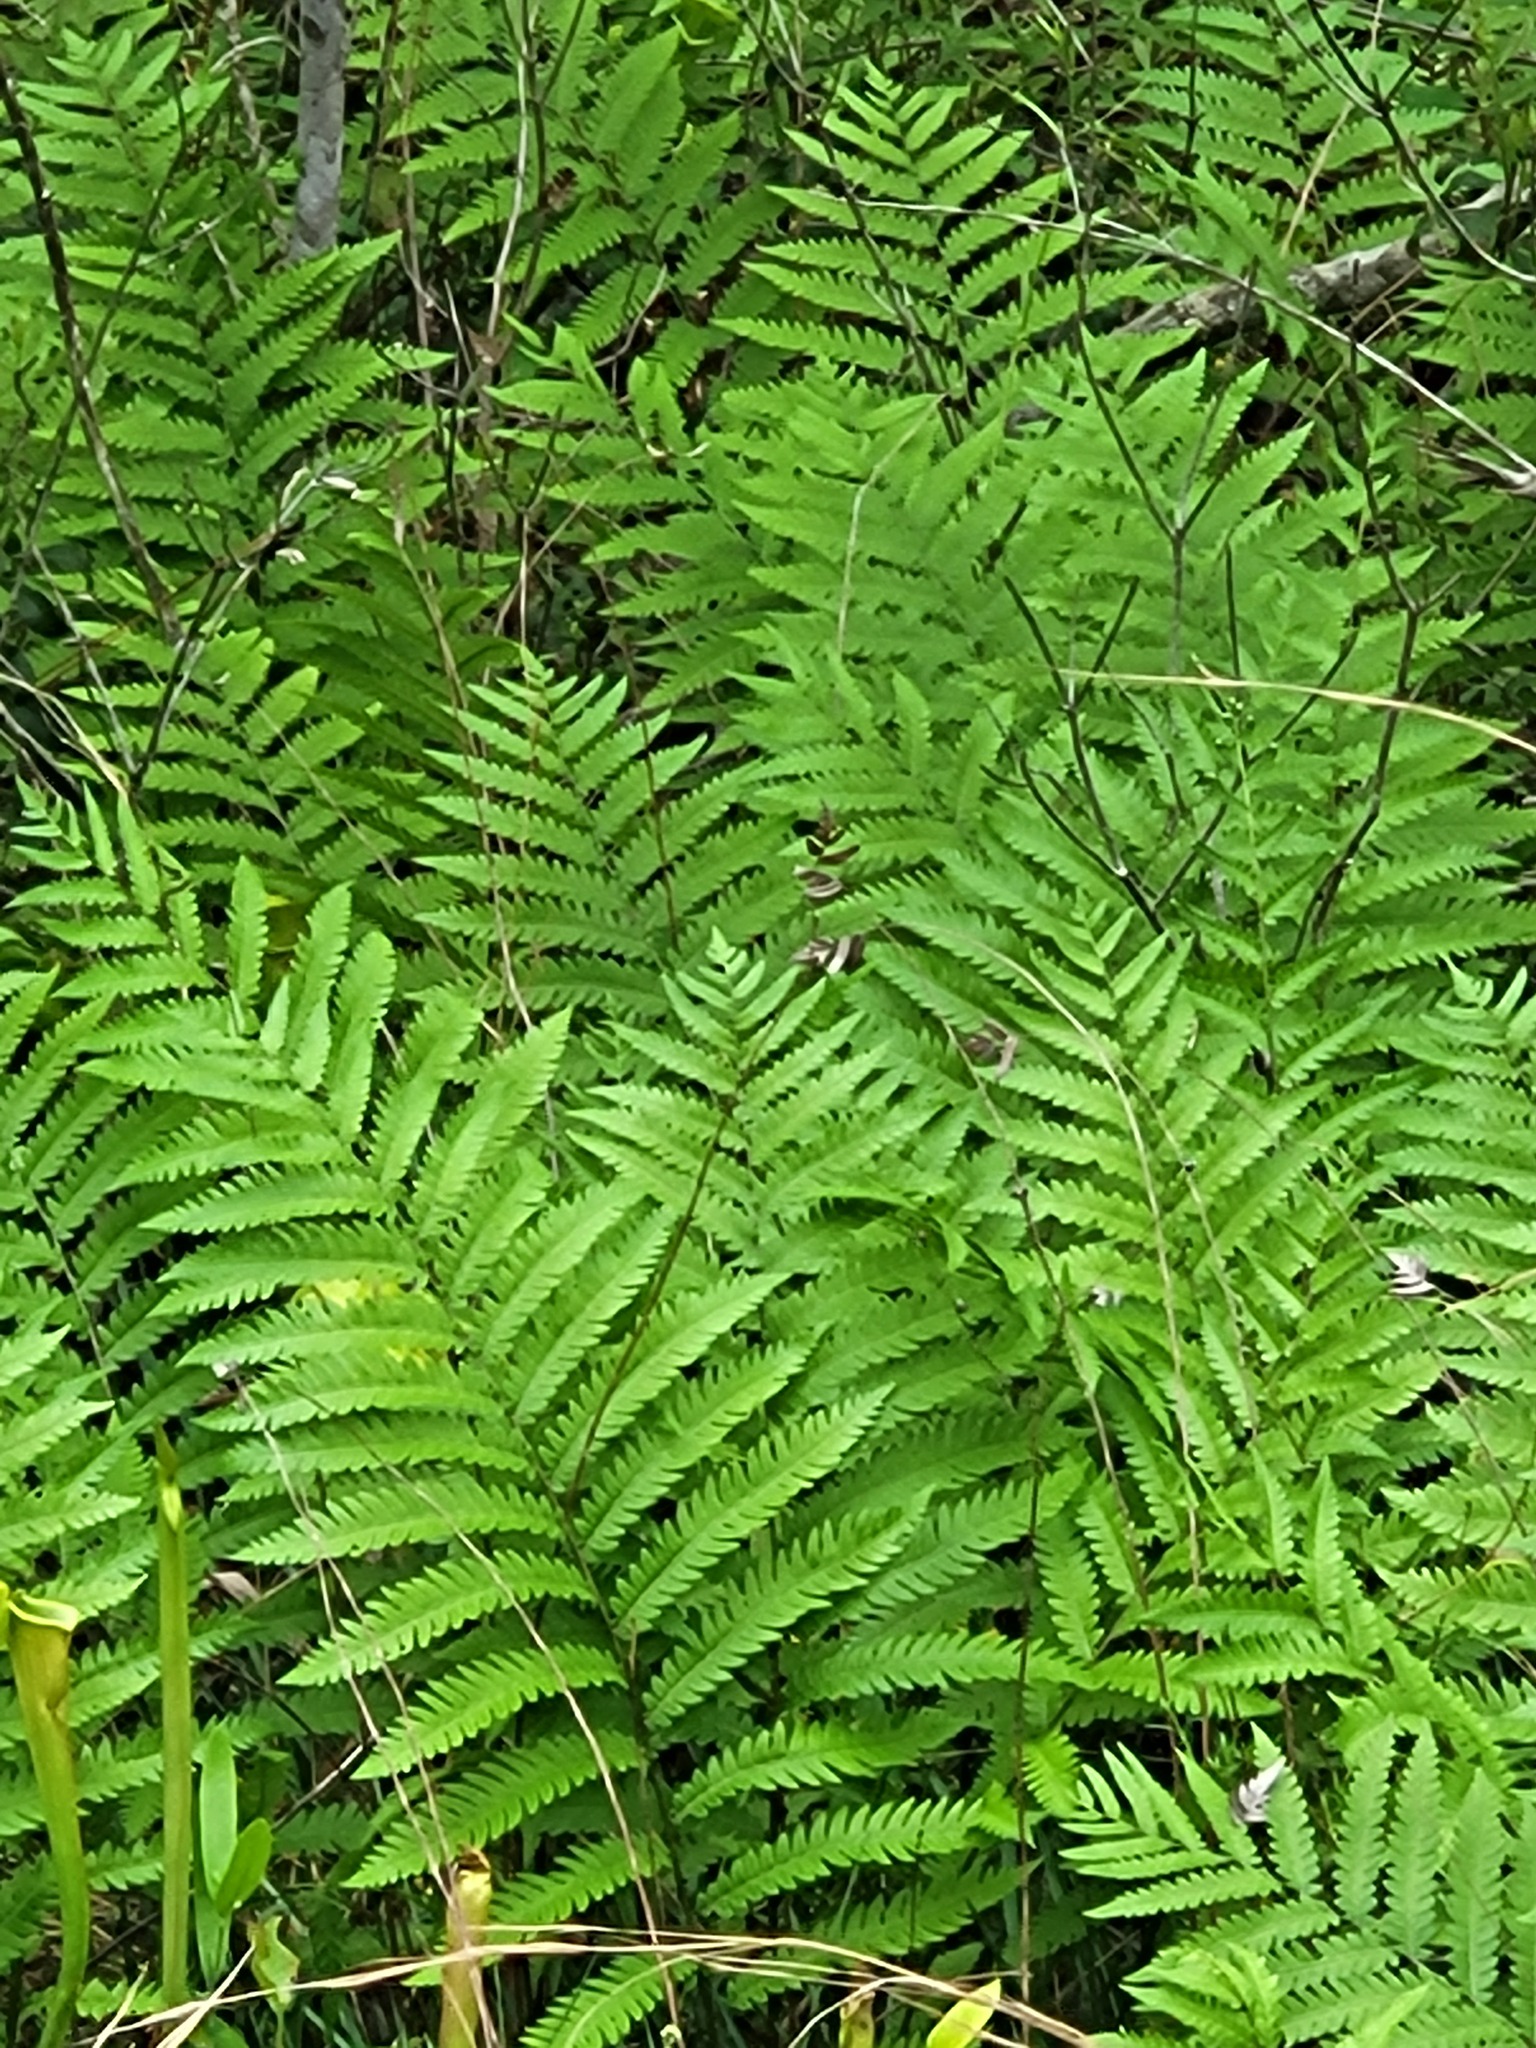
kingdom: Plantae
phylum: Tracheophyta
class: Polypodiopsida
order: Polypodiales
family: Blechnaceae
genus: Anchistea
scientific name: Anchistea virginica
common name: Virginia chain fern
